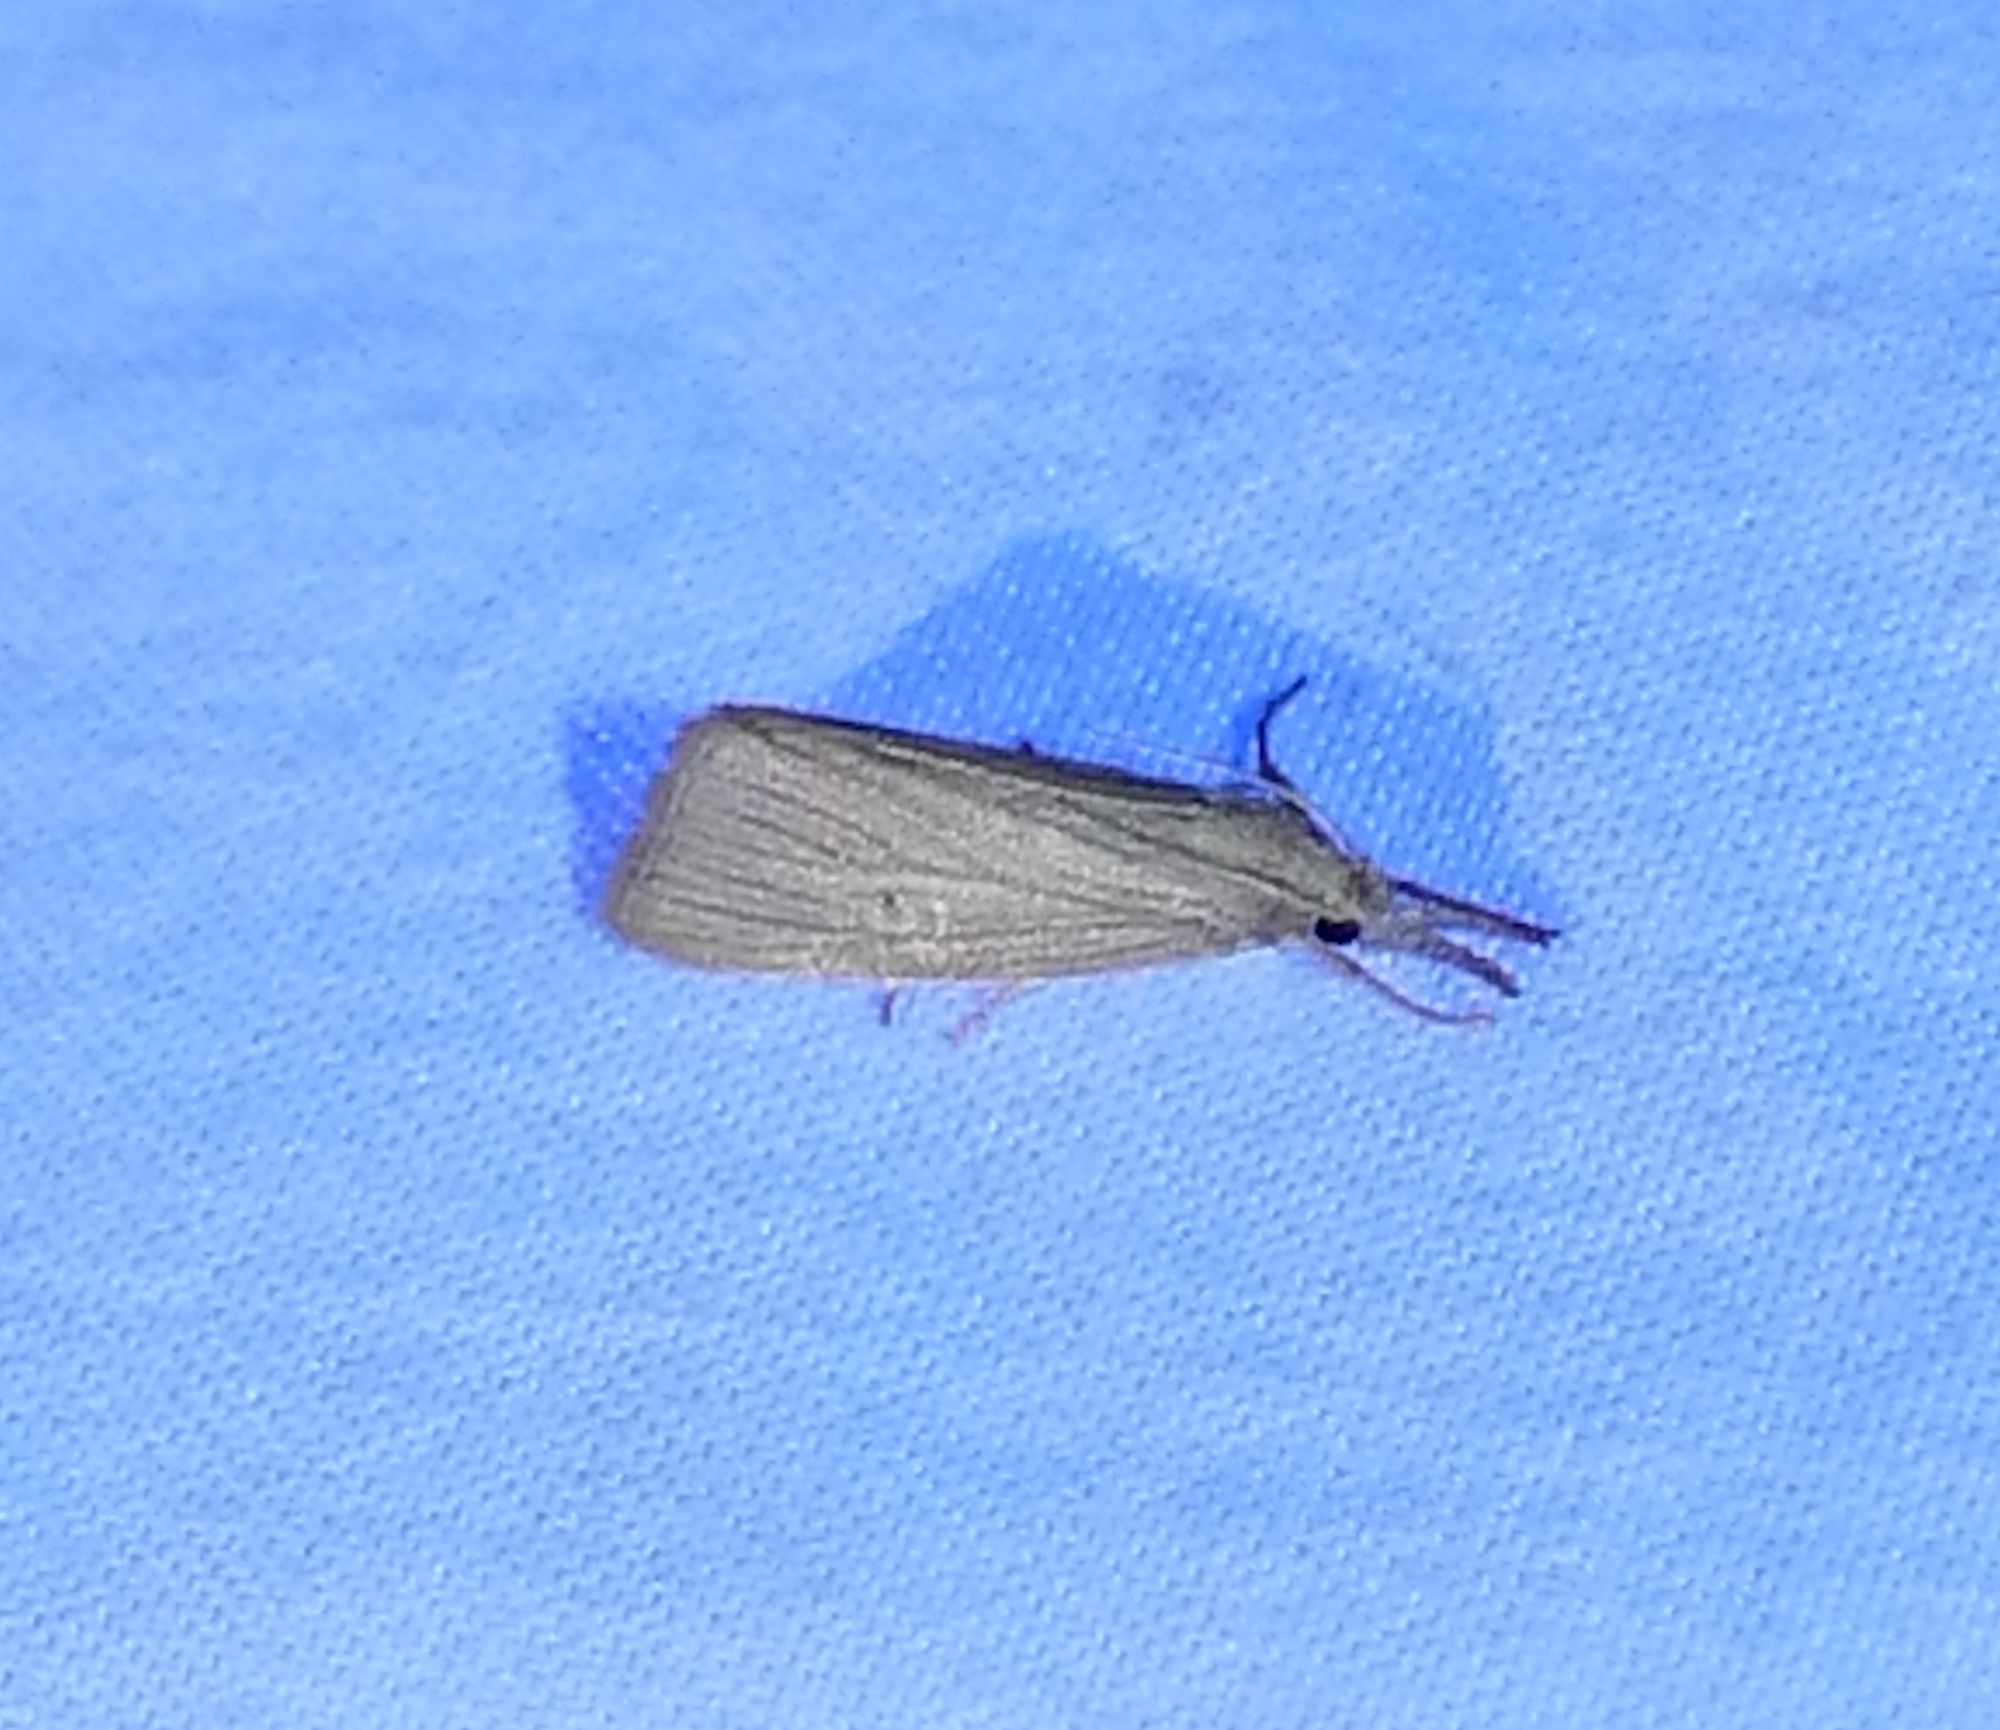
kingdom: Animalia
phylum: Arthropoda
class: Insecta
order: Lepidoptera
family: Crambidae
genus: Eoreuma
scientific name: Eoreuma densellus
